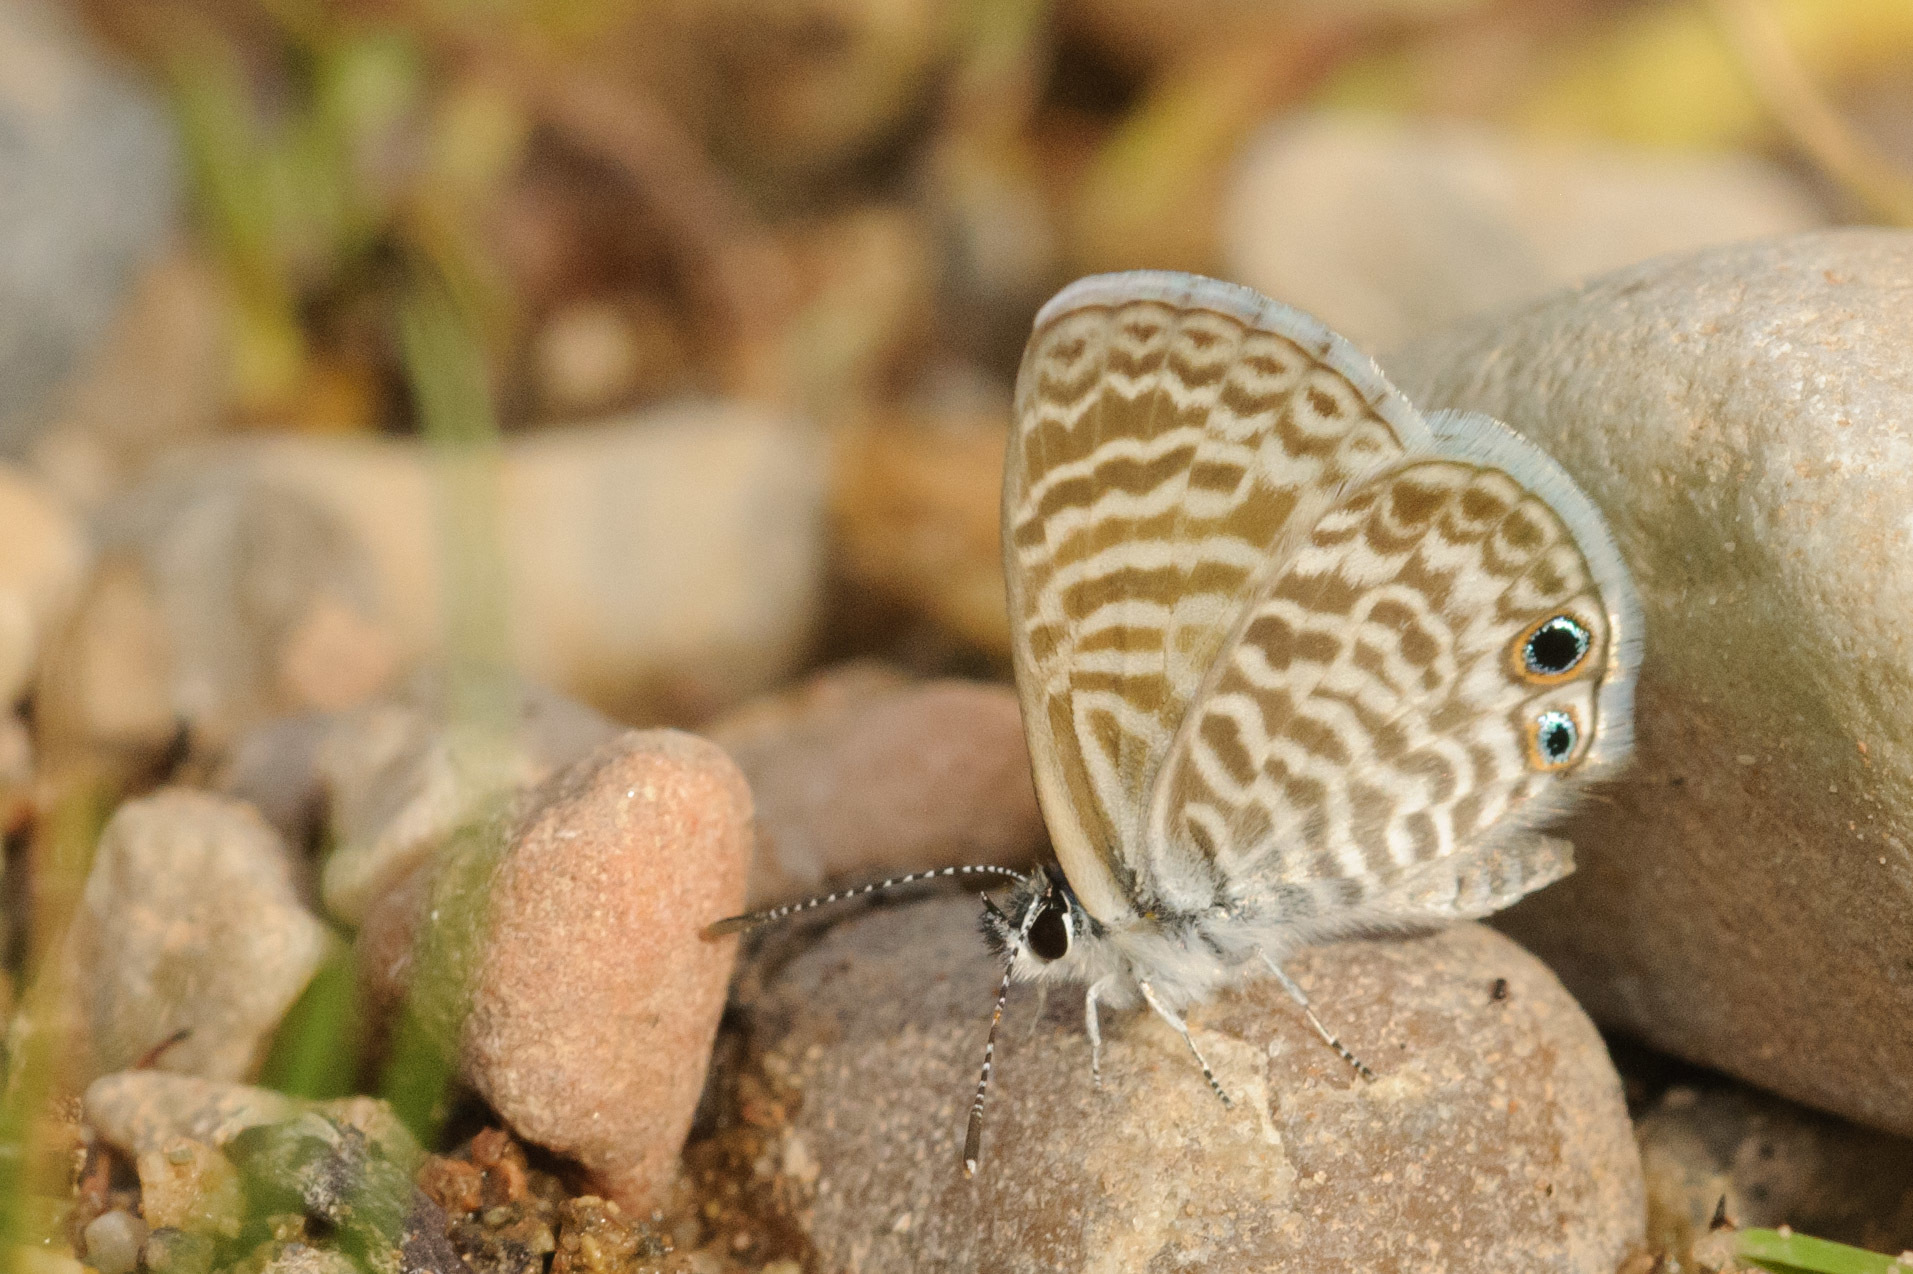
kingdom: Animalia
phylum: Arthropoda
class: Insecta
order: Lepidoptera
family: Lycaenidae
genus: Leptotes
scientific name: Leptotes marina
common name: Marine blue
